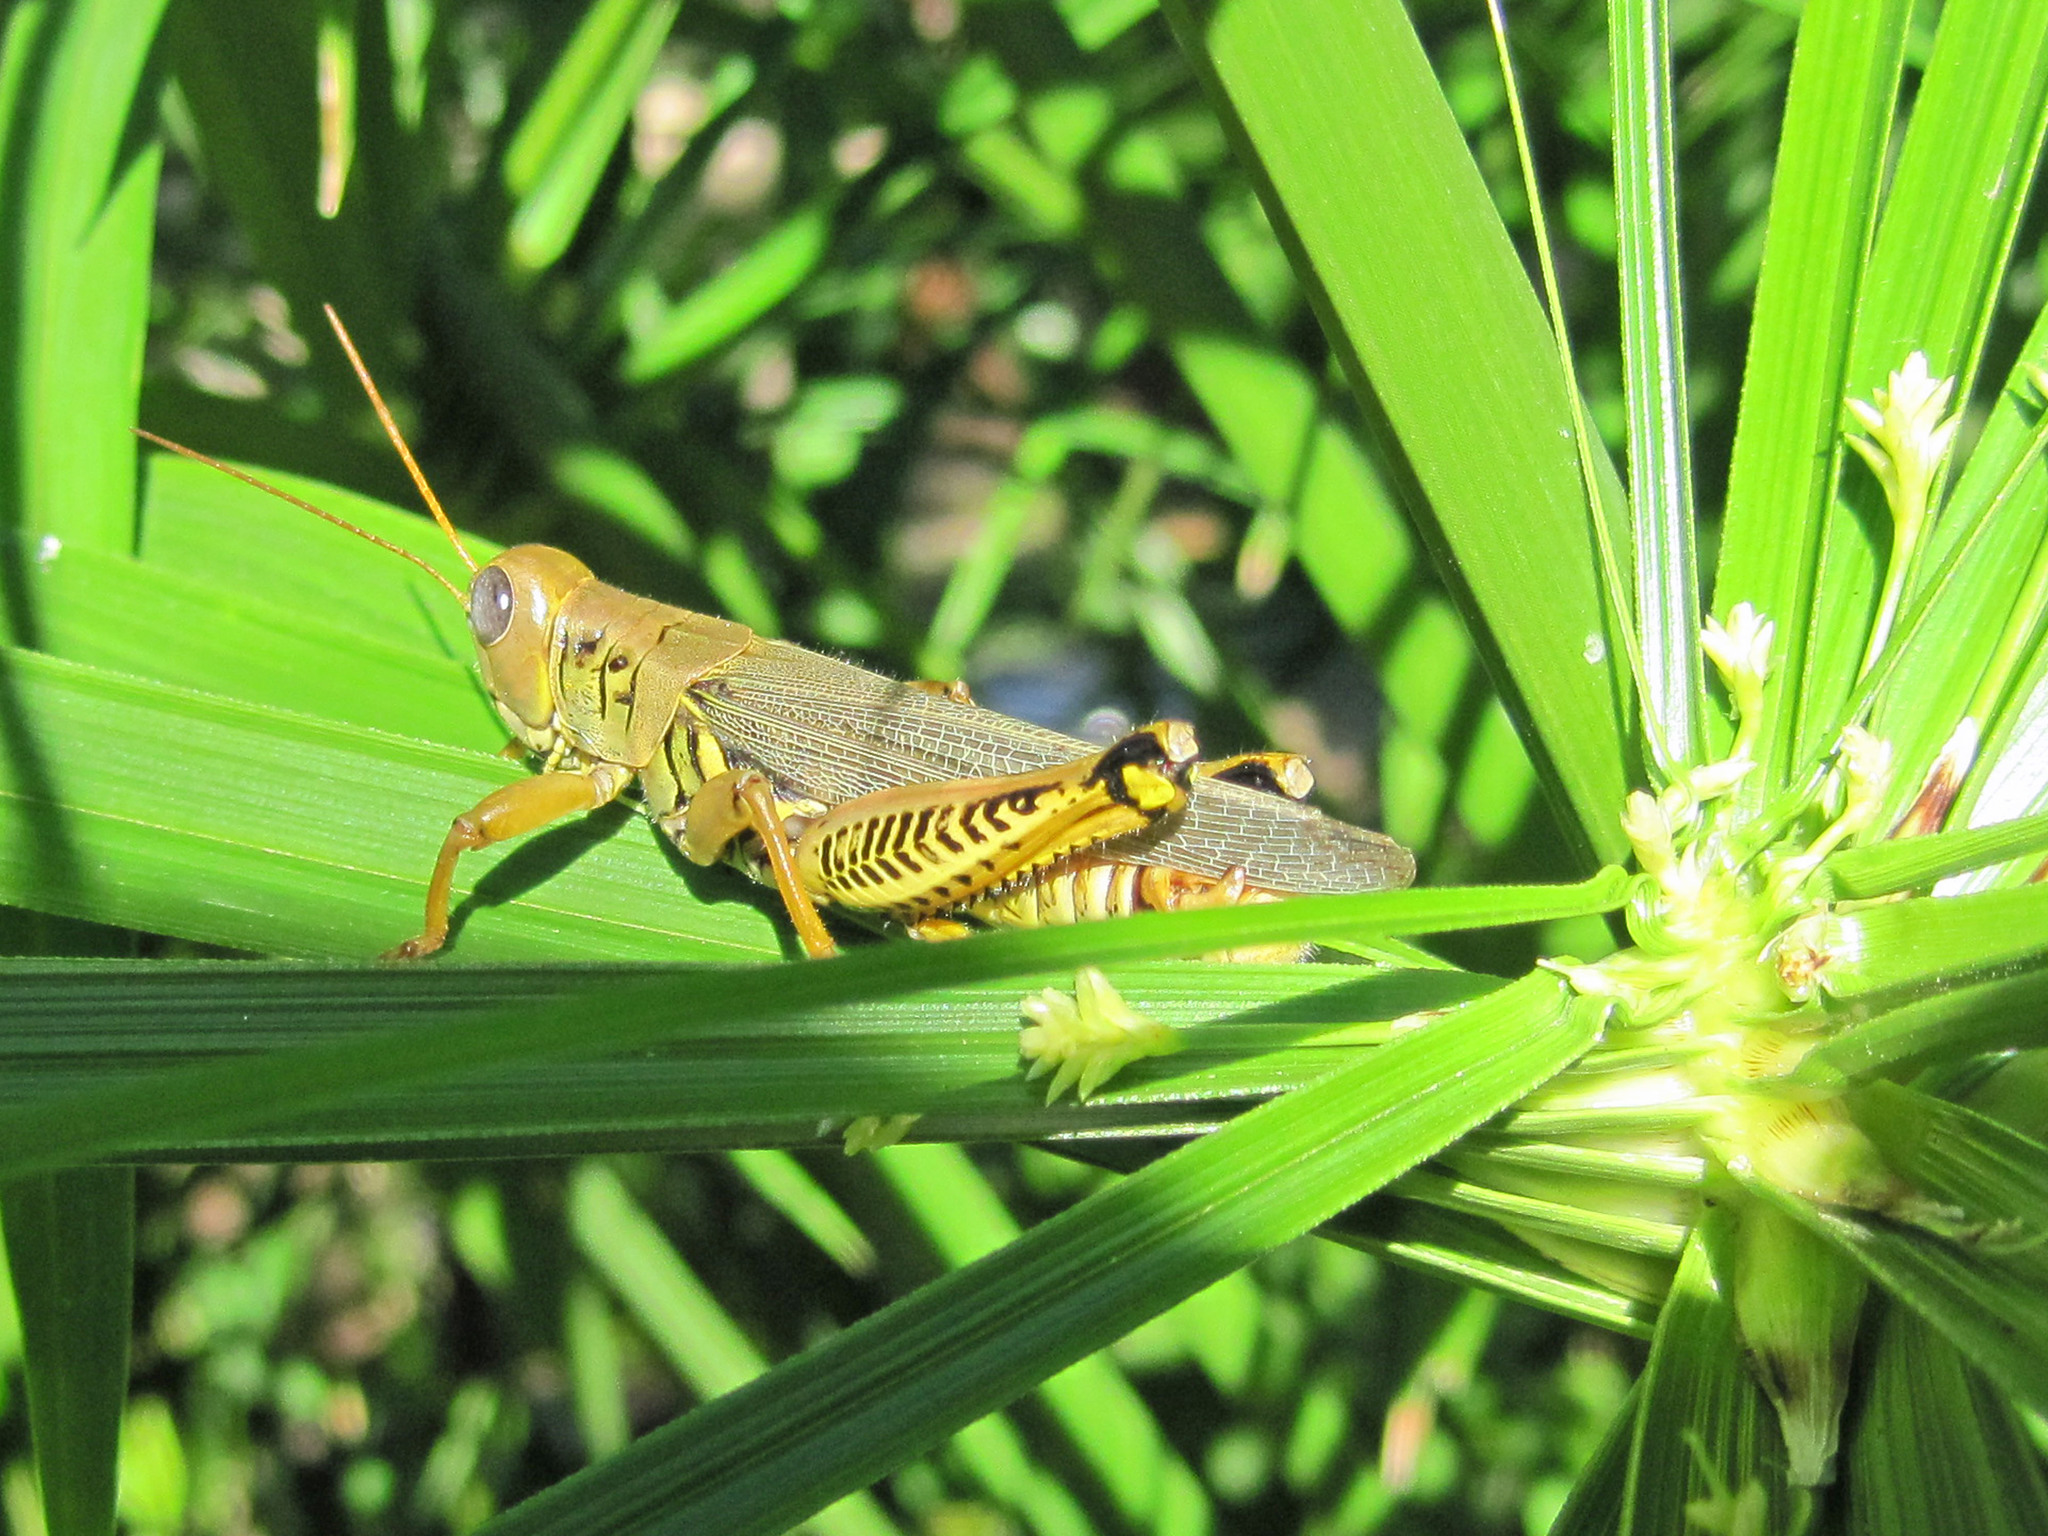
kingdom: Animalia
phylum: Arthropoda
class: Insecta
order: Orthoptera
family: Acrididae
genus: Melanoplus
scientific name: Melanoplus differentialis
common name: Differential grasshopper
